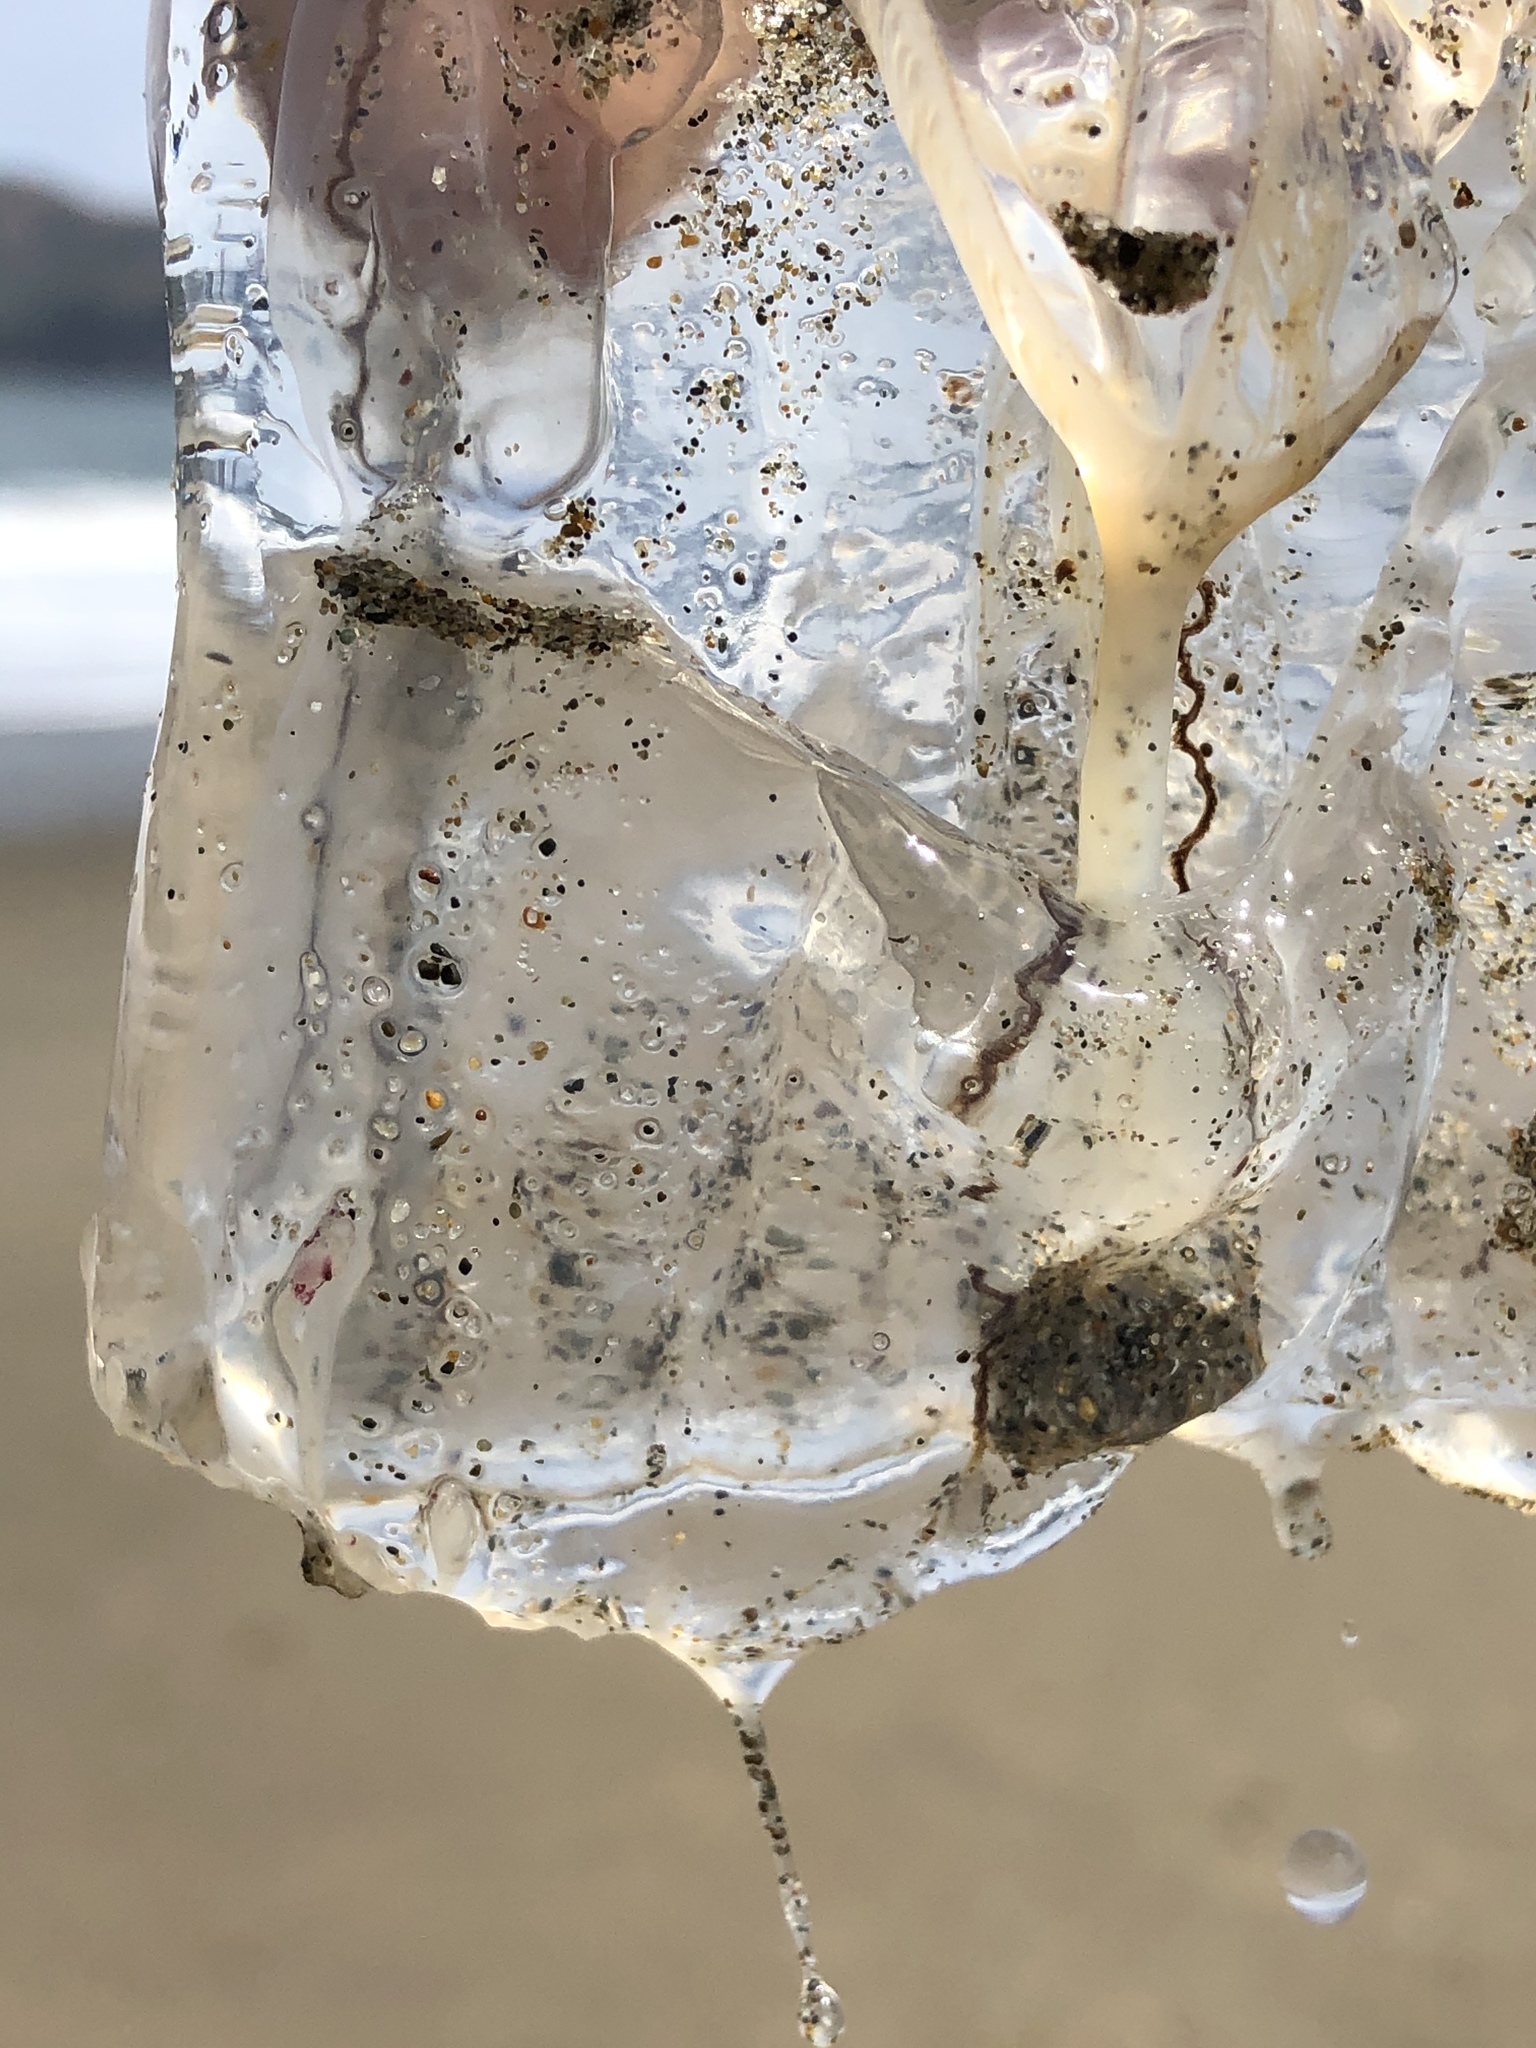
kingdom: Animalia
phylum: Cnidaria
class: Hydrozoa
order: Anthoathecata
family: Corynidae
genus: Scrippsia
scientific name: Scrippsia pacifica
